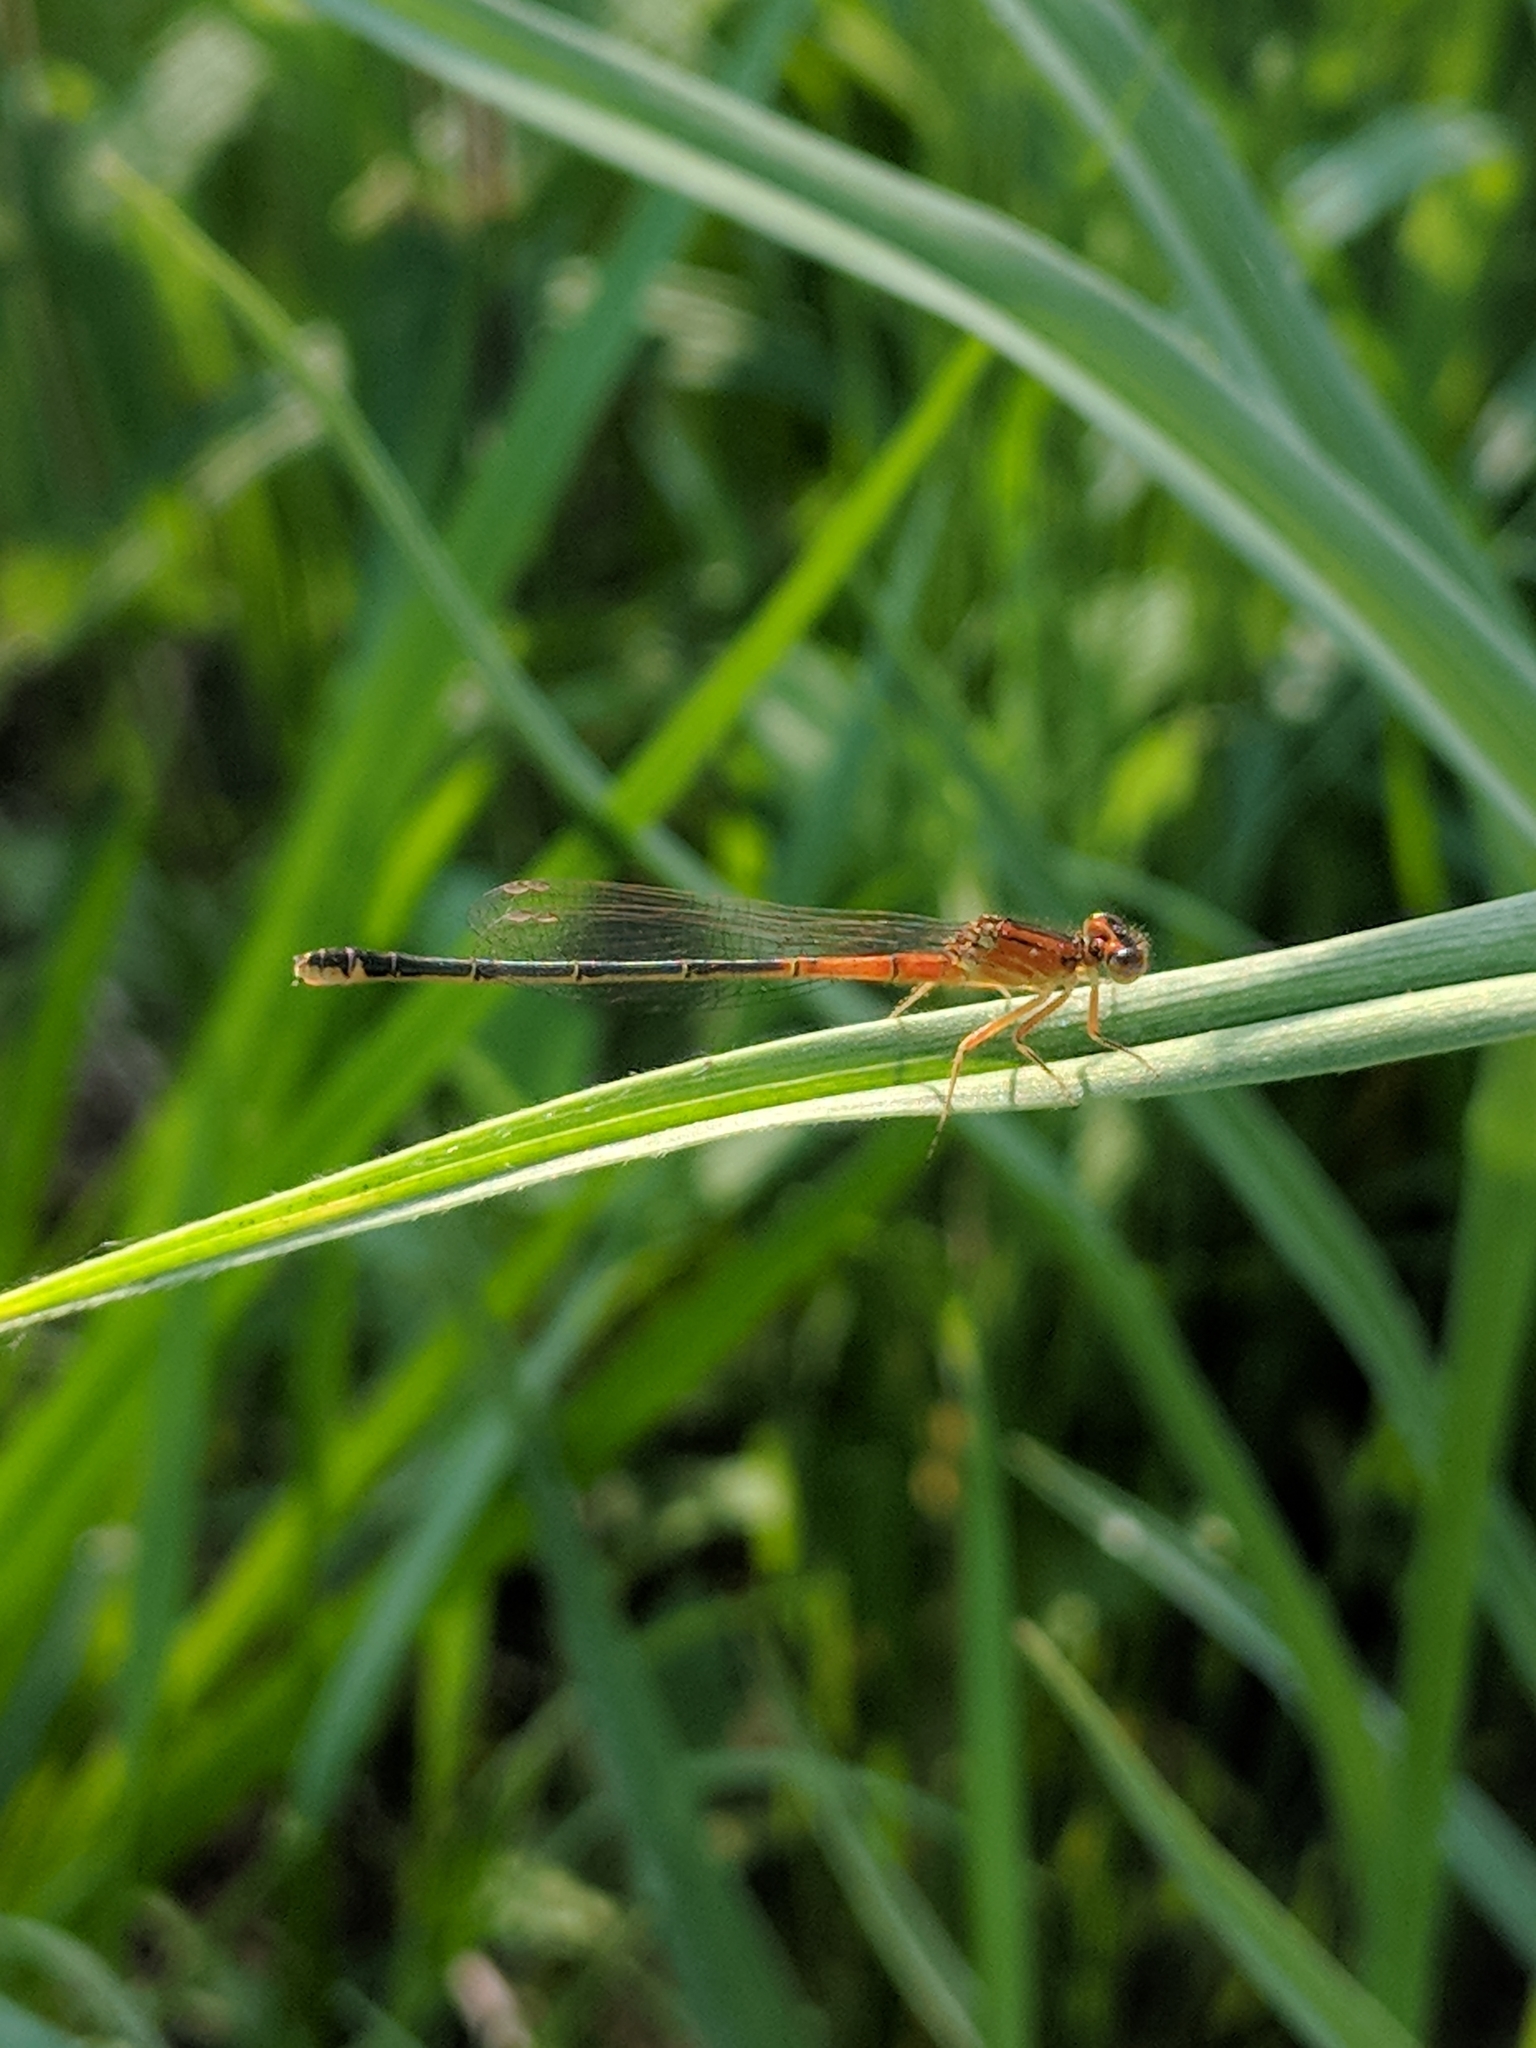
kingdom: Animalia
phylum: Arthropoda
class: Insecta
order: Odonata
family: Coenagrionidae
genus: Ischnura
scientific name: Ischnura verticalis
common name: Eastern forktail
